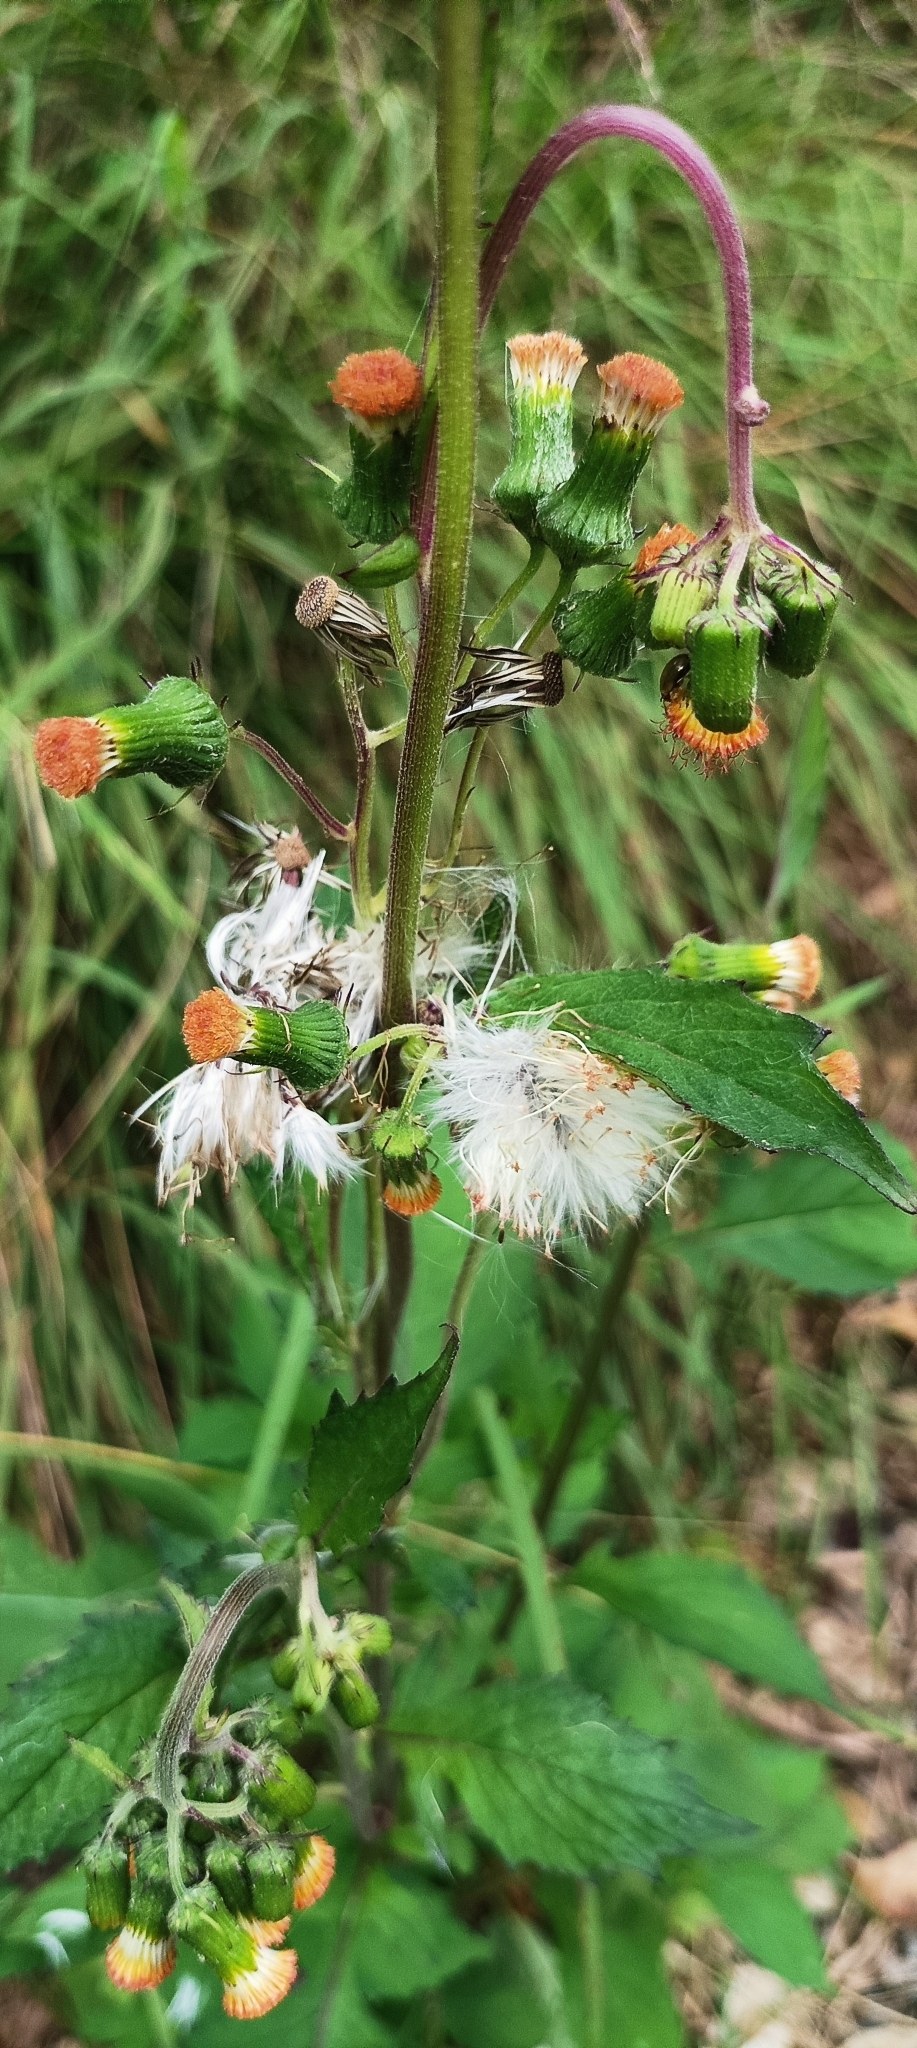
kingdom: Plantae
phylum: Tracheophyta
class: Magnoliopsida
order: Asterales
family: Asteraceae
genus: Crassocephalum
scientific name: Crassocephalum crepidioides
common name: Redflower ragleaf
